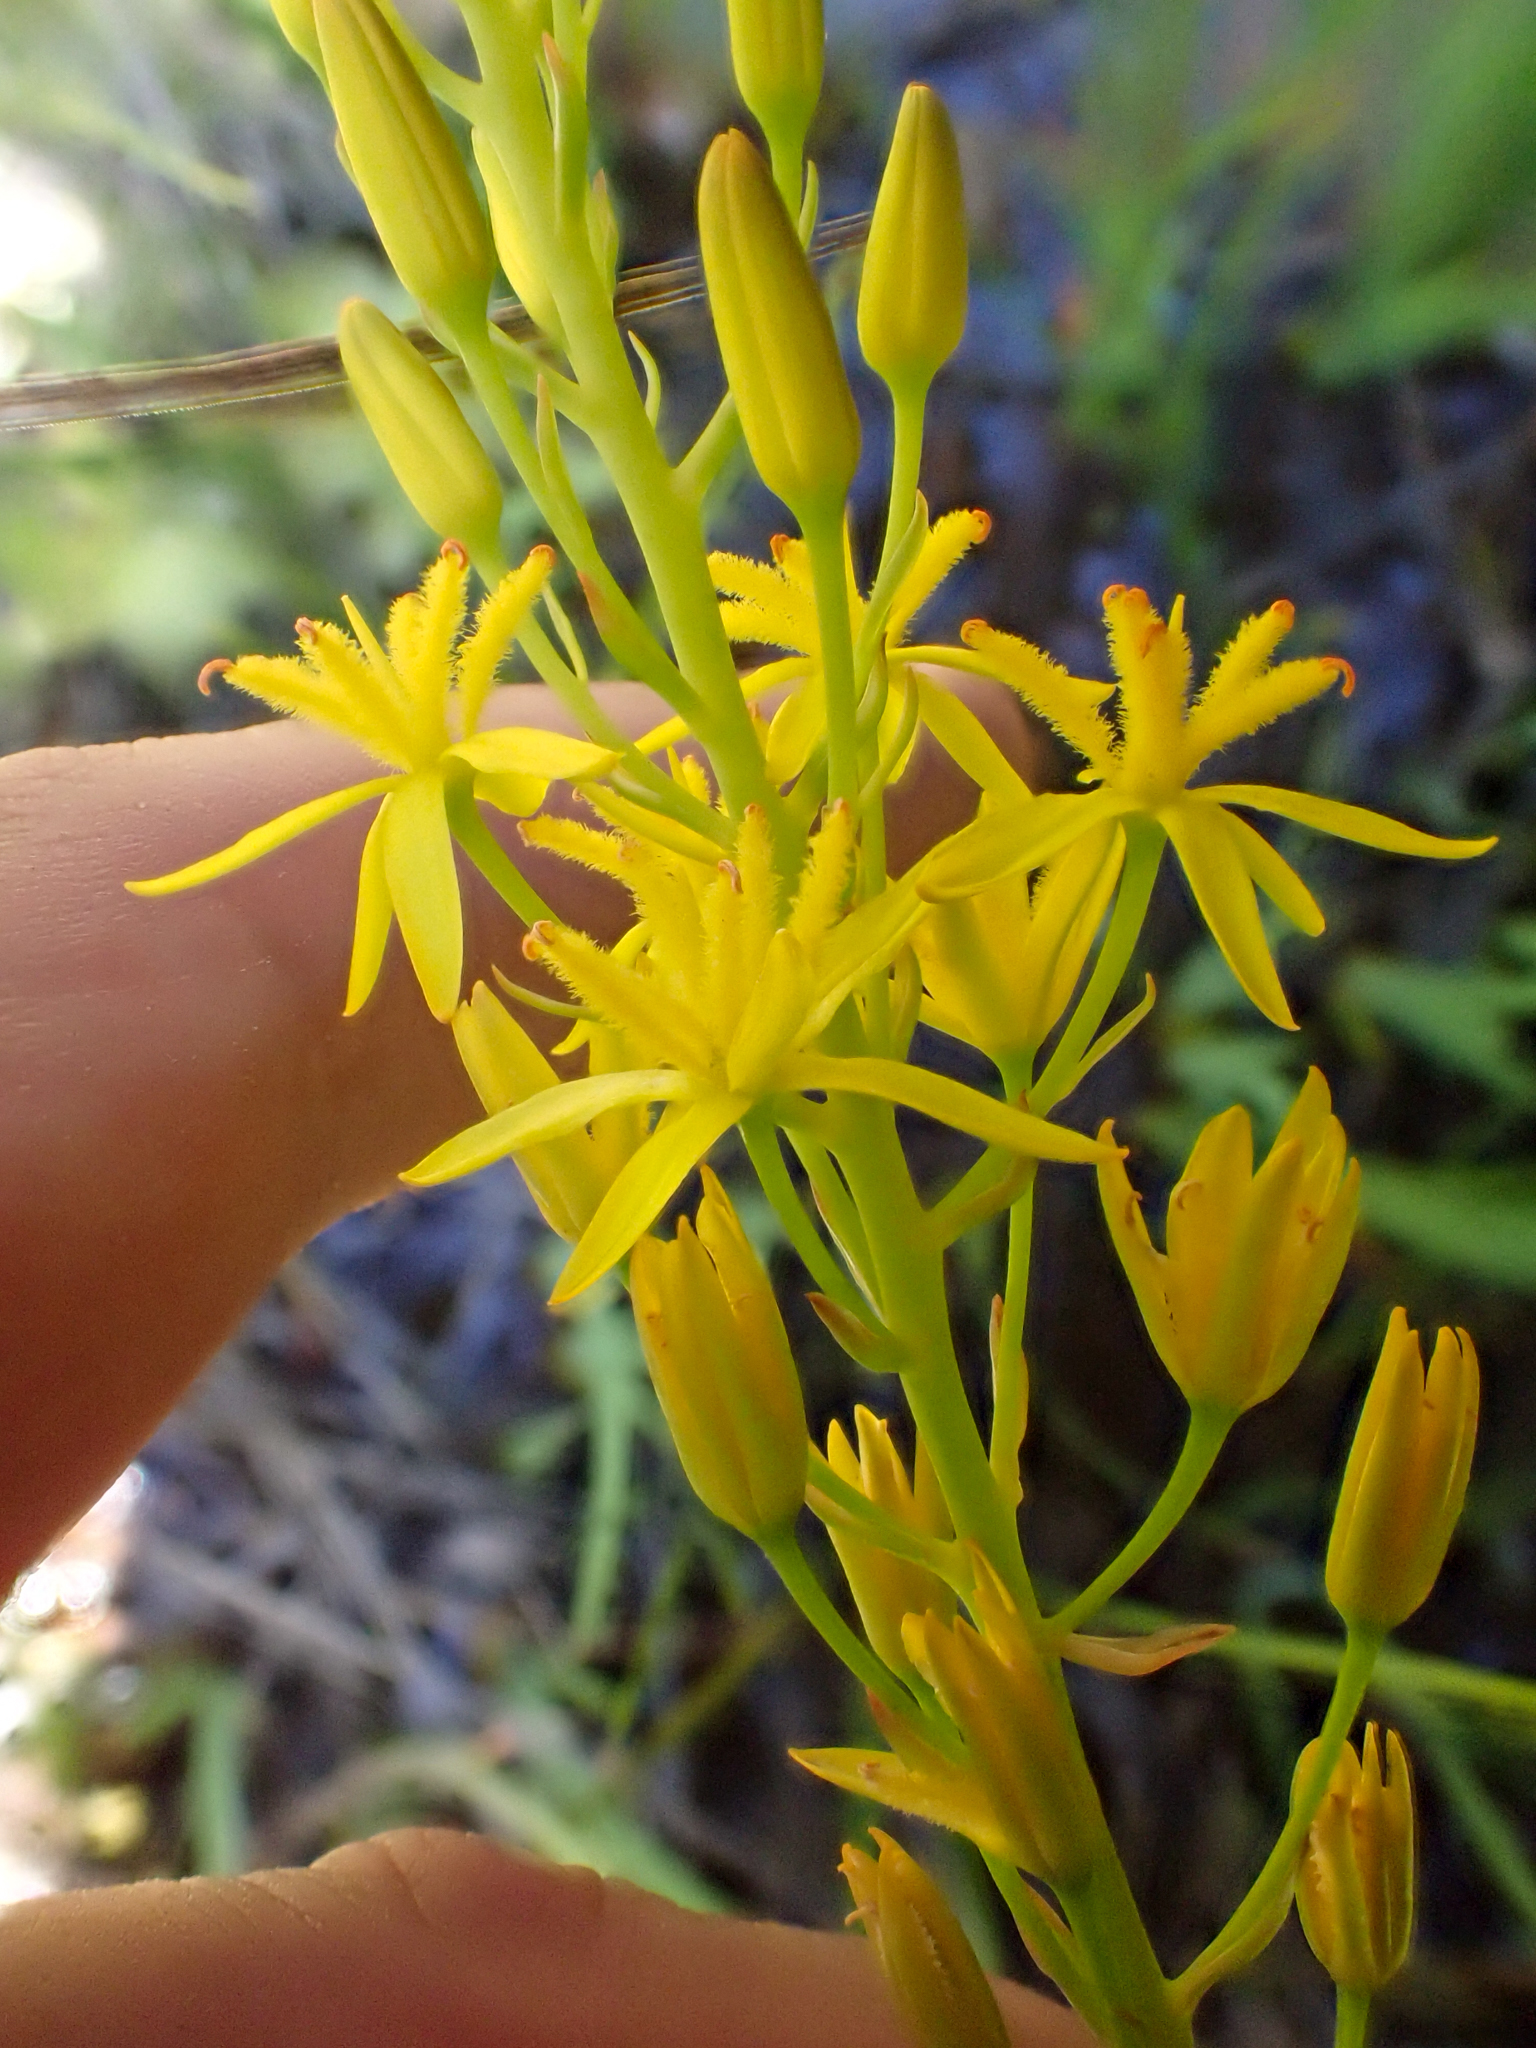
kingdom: Plantae
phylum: Tracheophyta
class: Liliopsida
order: Dioscoreales
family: Nartheciaceae
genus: Narthecium
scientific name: Narthecium californicum
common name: California bog-asphodel
